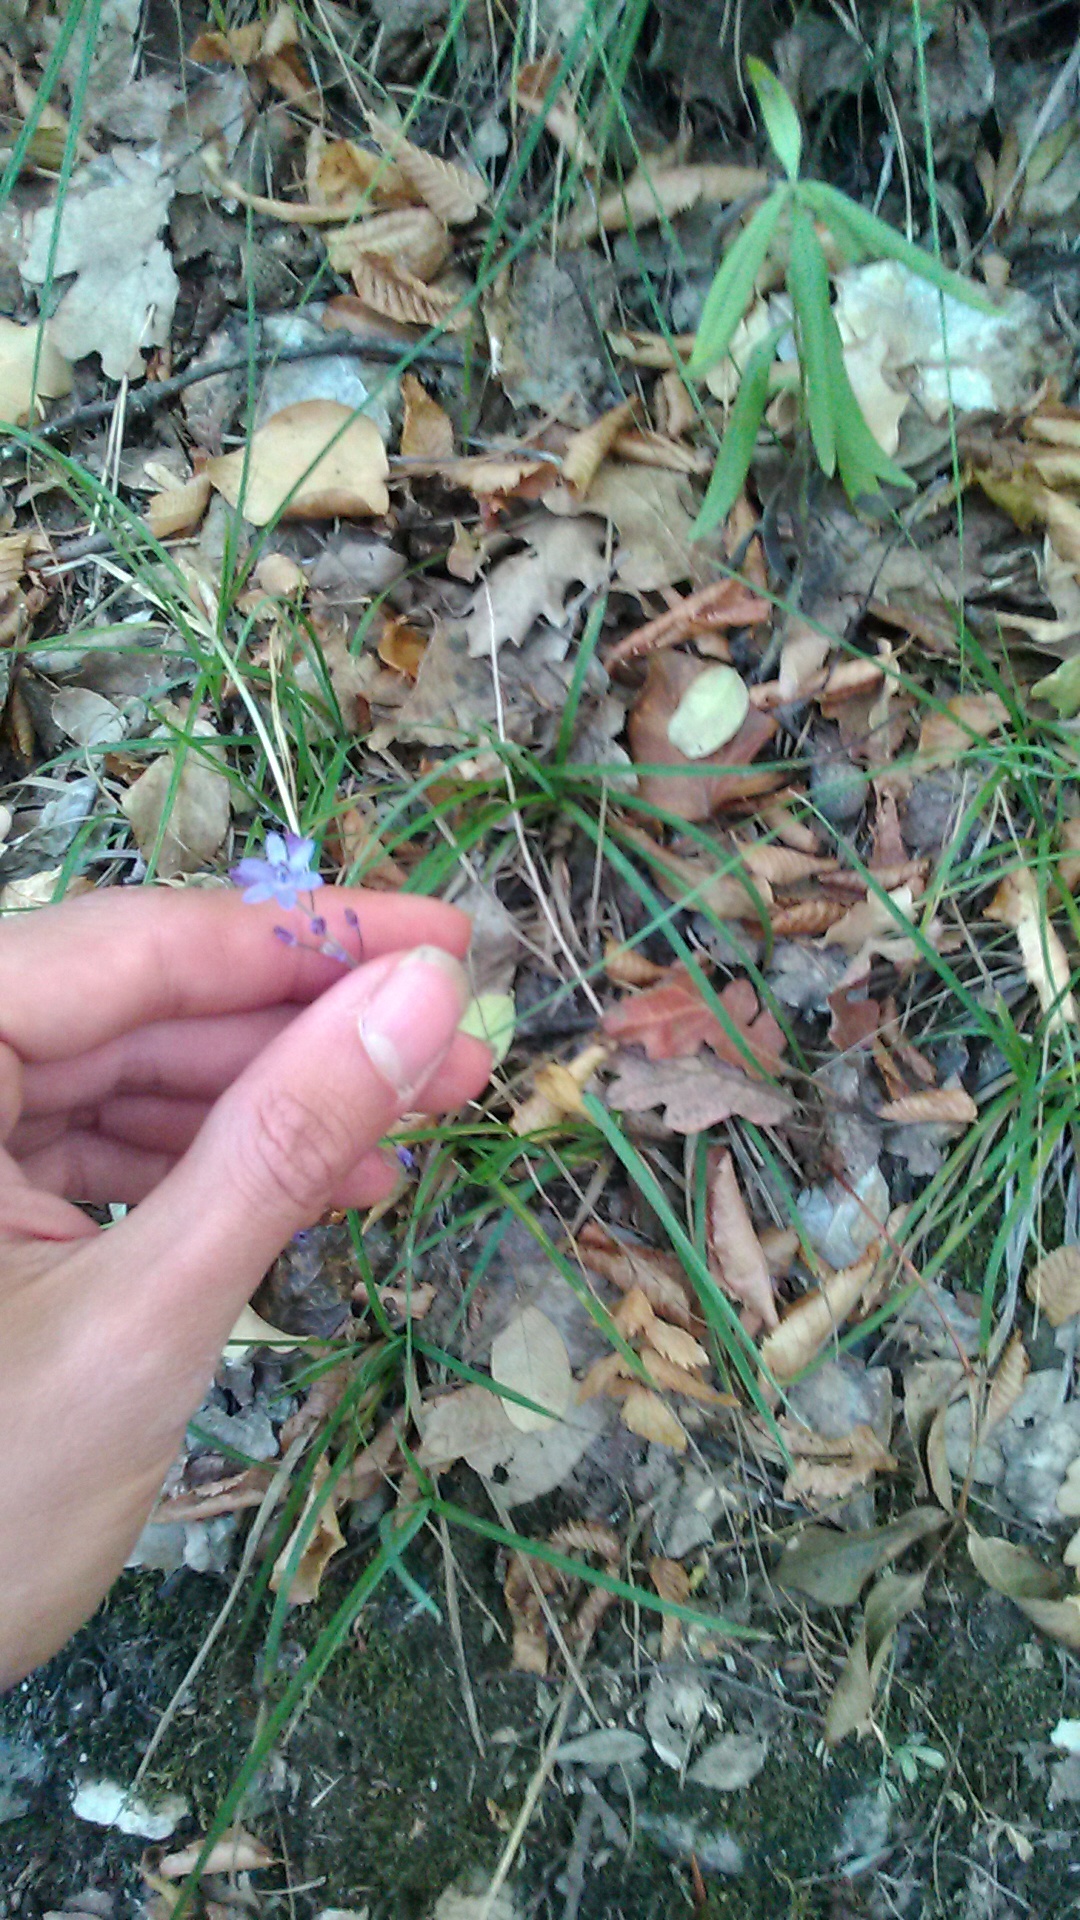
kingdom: Plantae
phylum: Tracheophyta
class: Liliopsida
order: Asparagales
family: Asparagaceae
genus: Prospero
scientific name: Prospero autumnale
